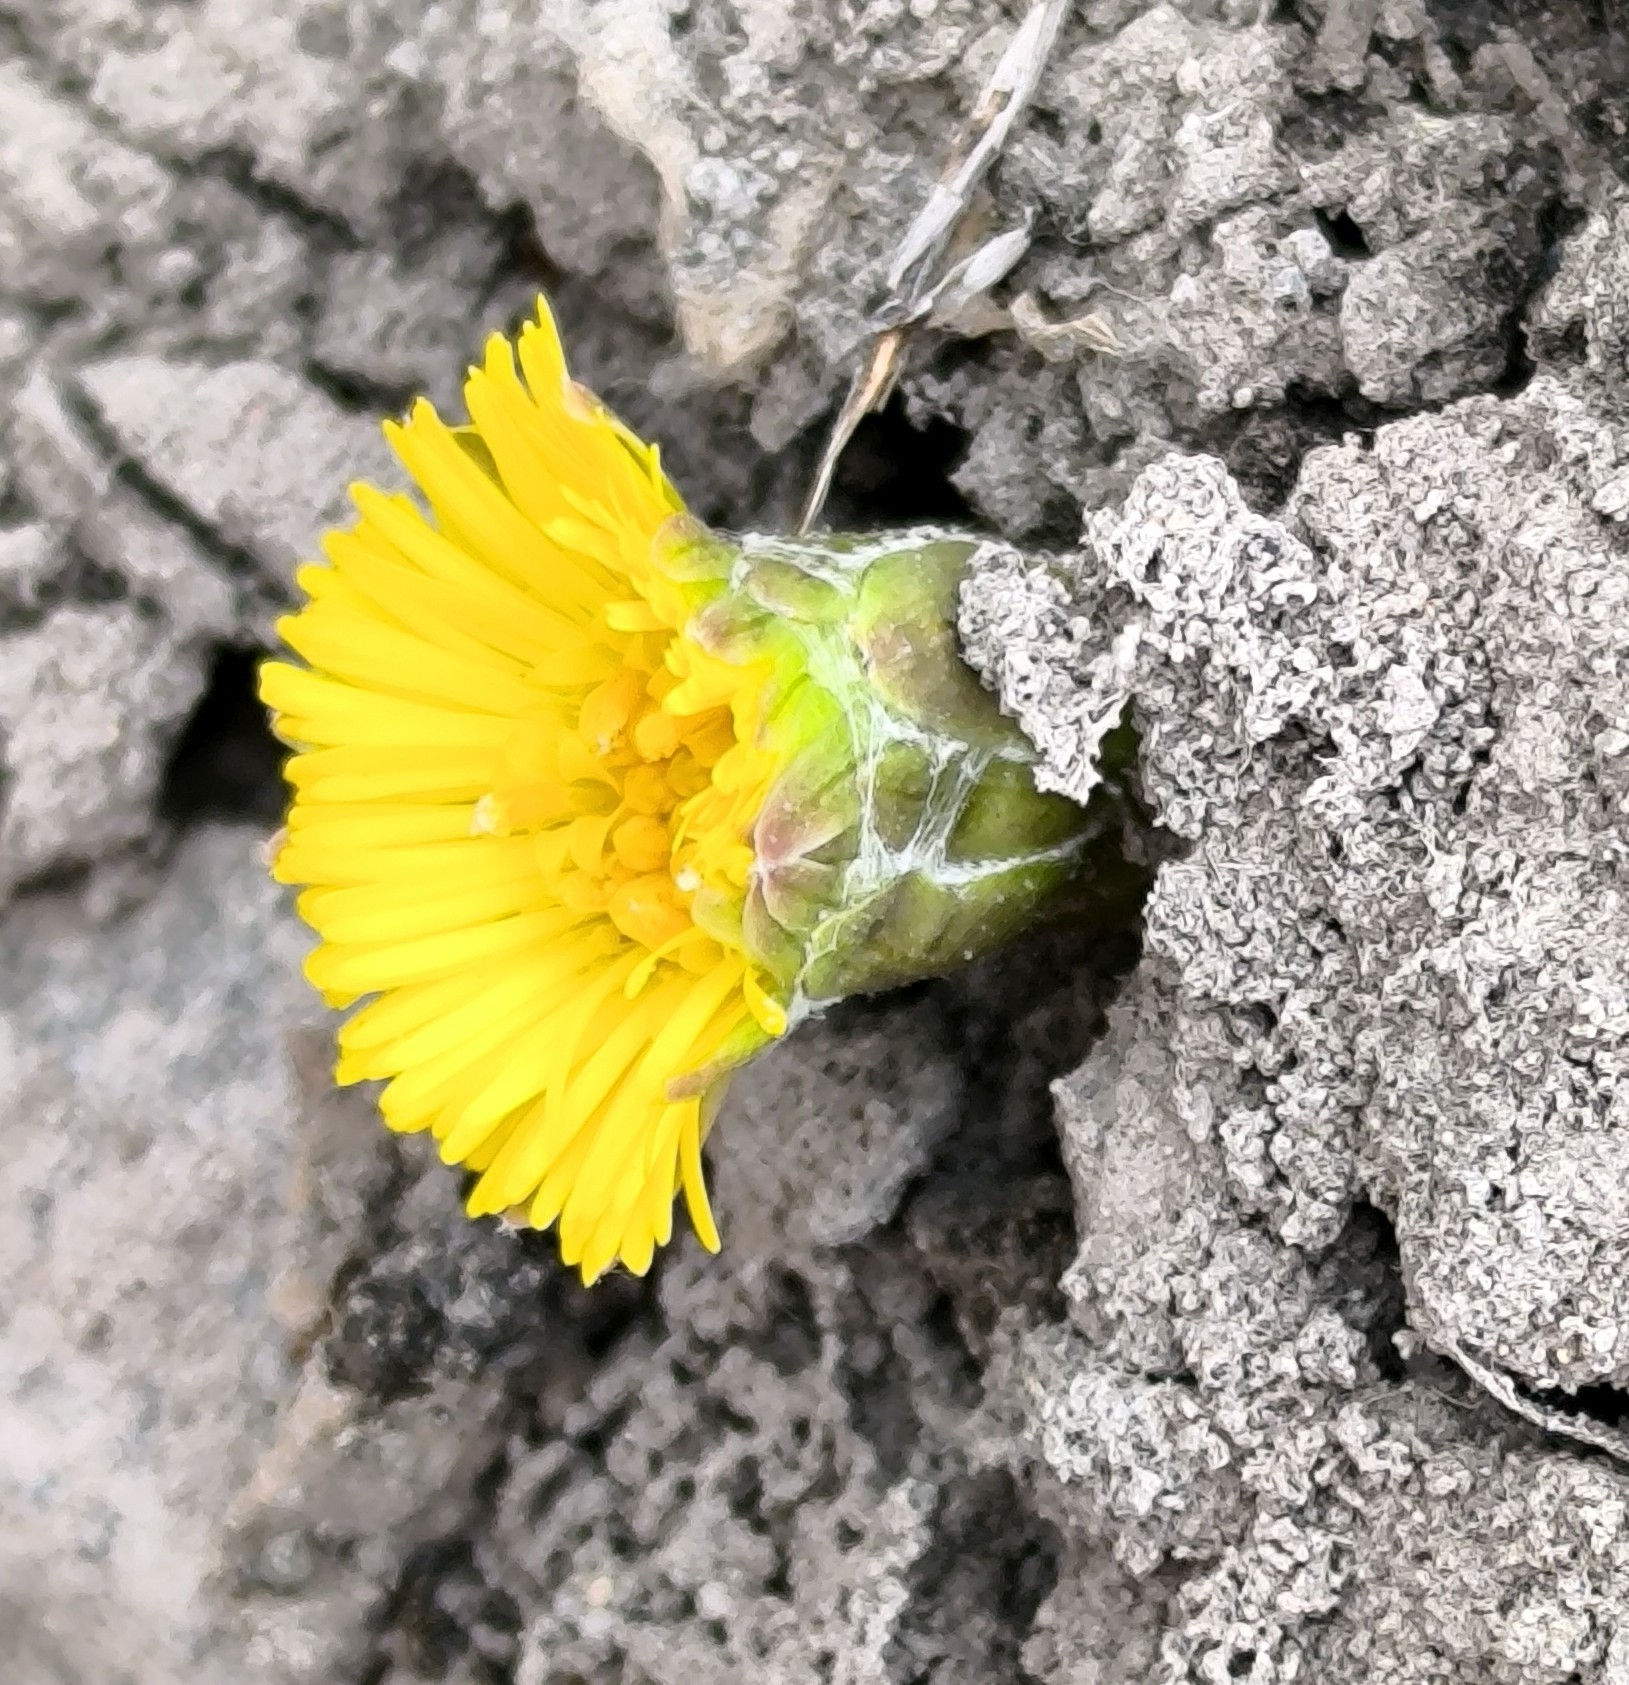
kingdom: Plantae
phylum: Tracheophyta
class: Magnoliopsida
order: Asterales
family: Asteraceae
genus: Tussilago
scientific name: Tussilago farfara
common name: Coltsfoot
